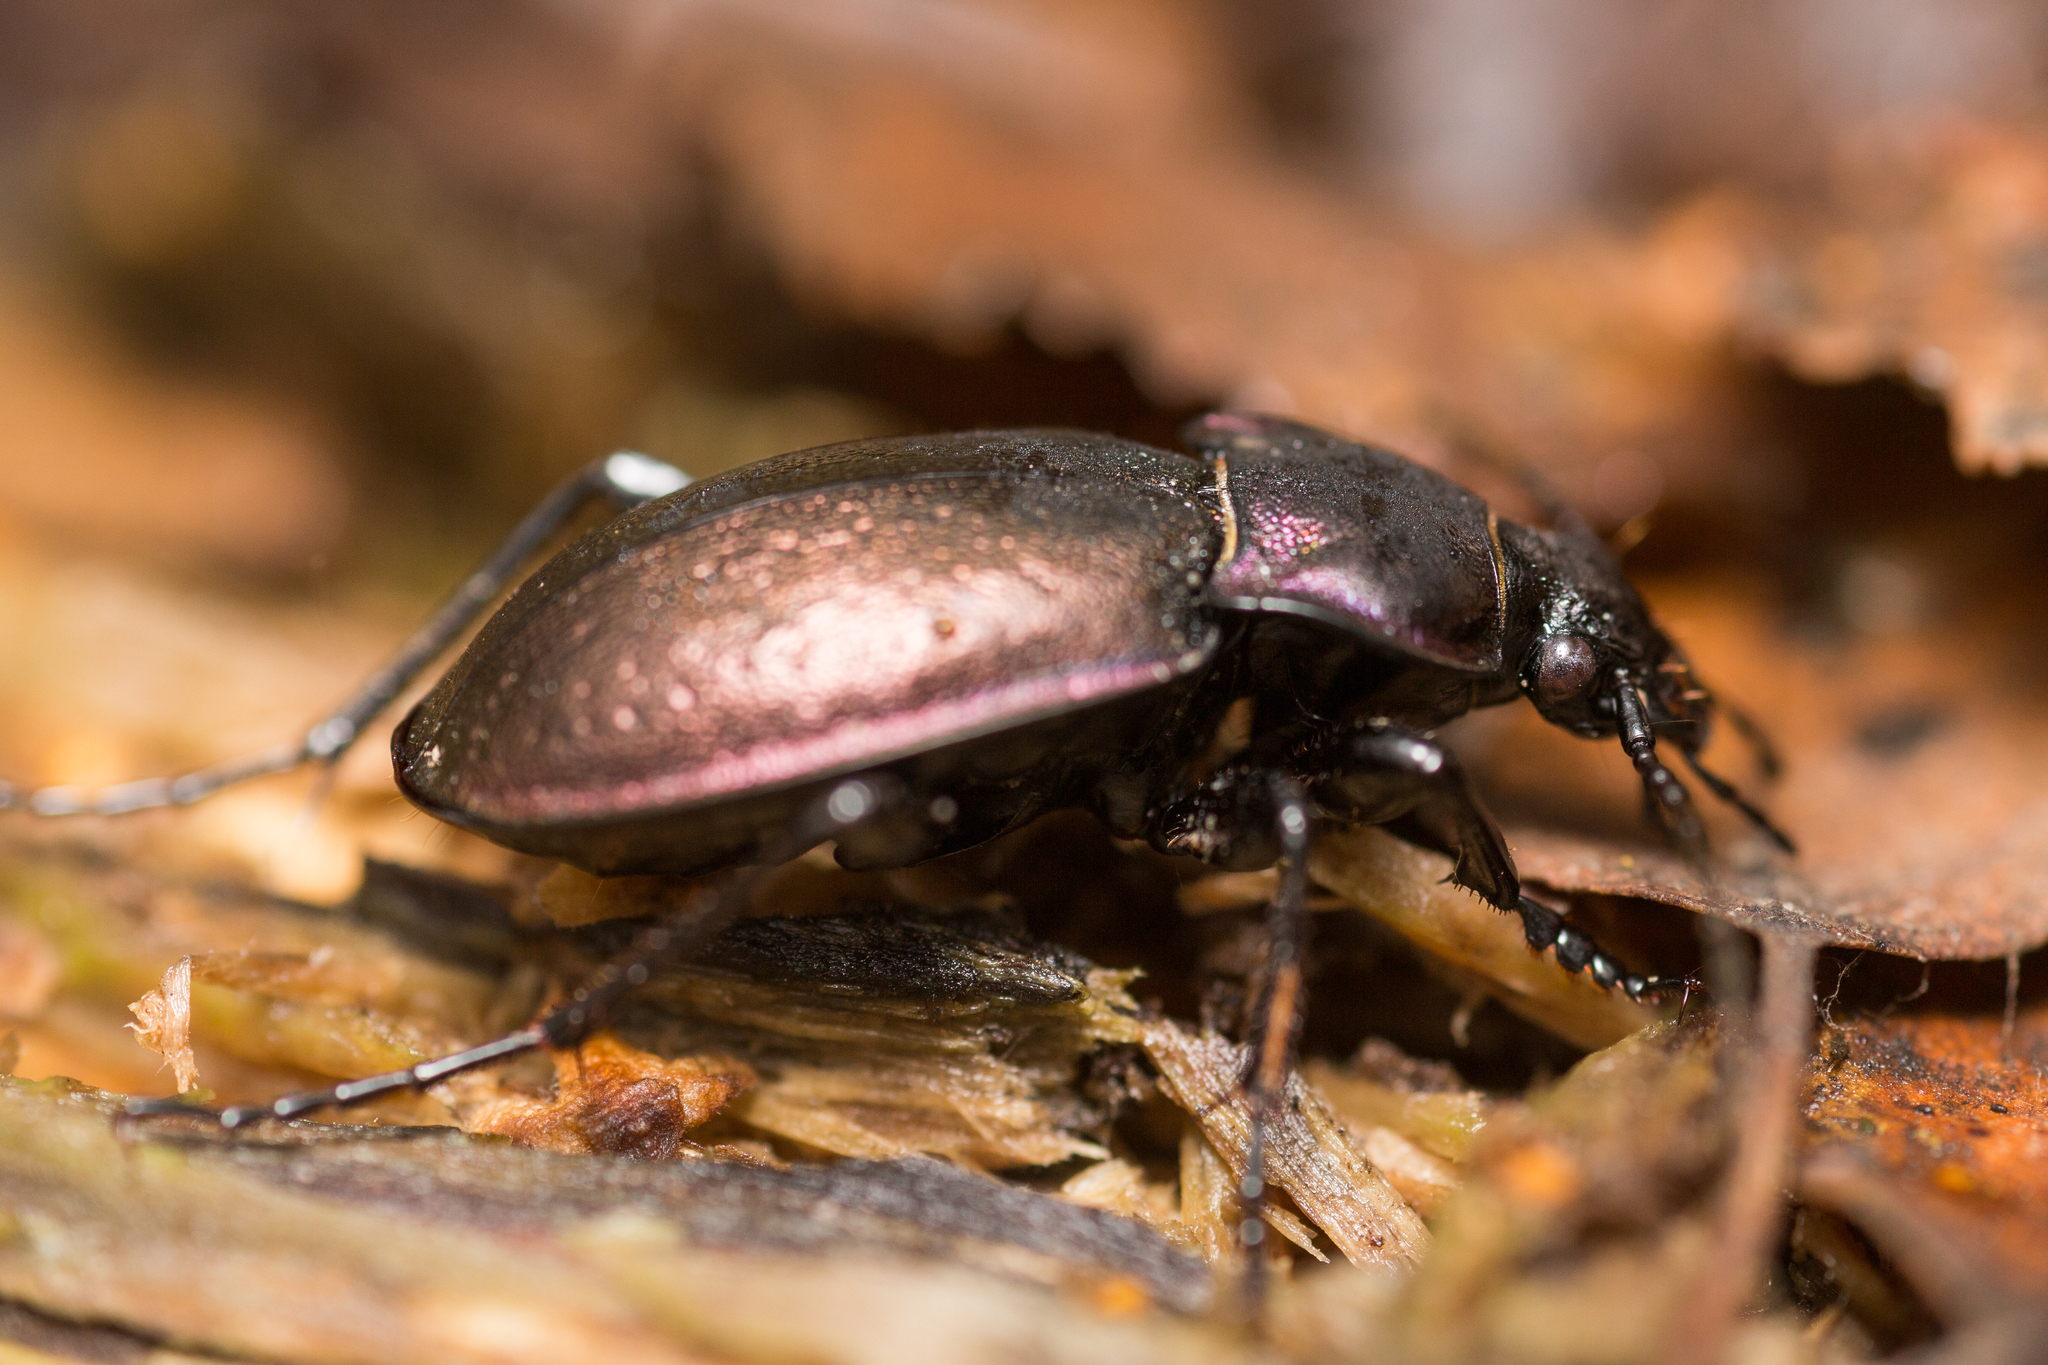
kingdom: Animalia
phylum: Arthropoda
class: Insecta
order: Coleoptera
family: Carabidae
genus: Carabus
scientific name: Carabus nemoralis
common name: European ground beetle
